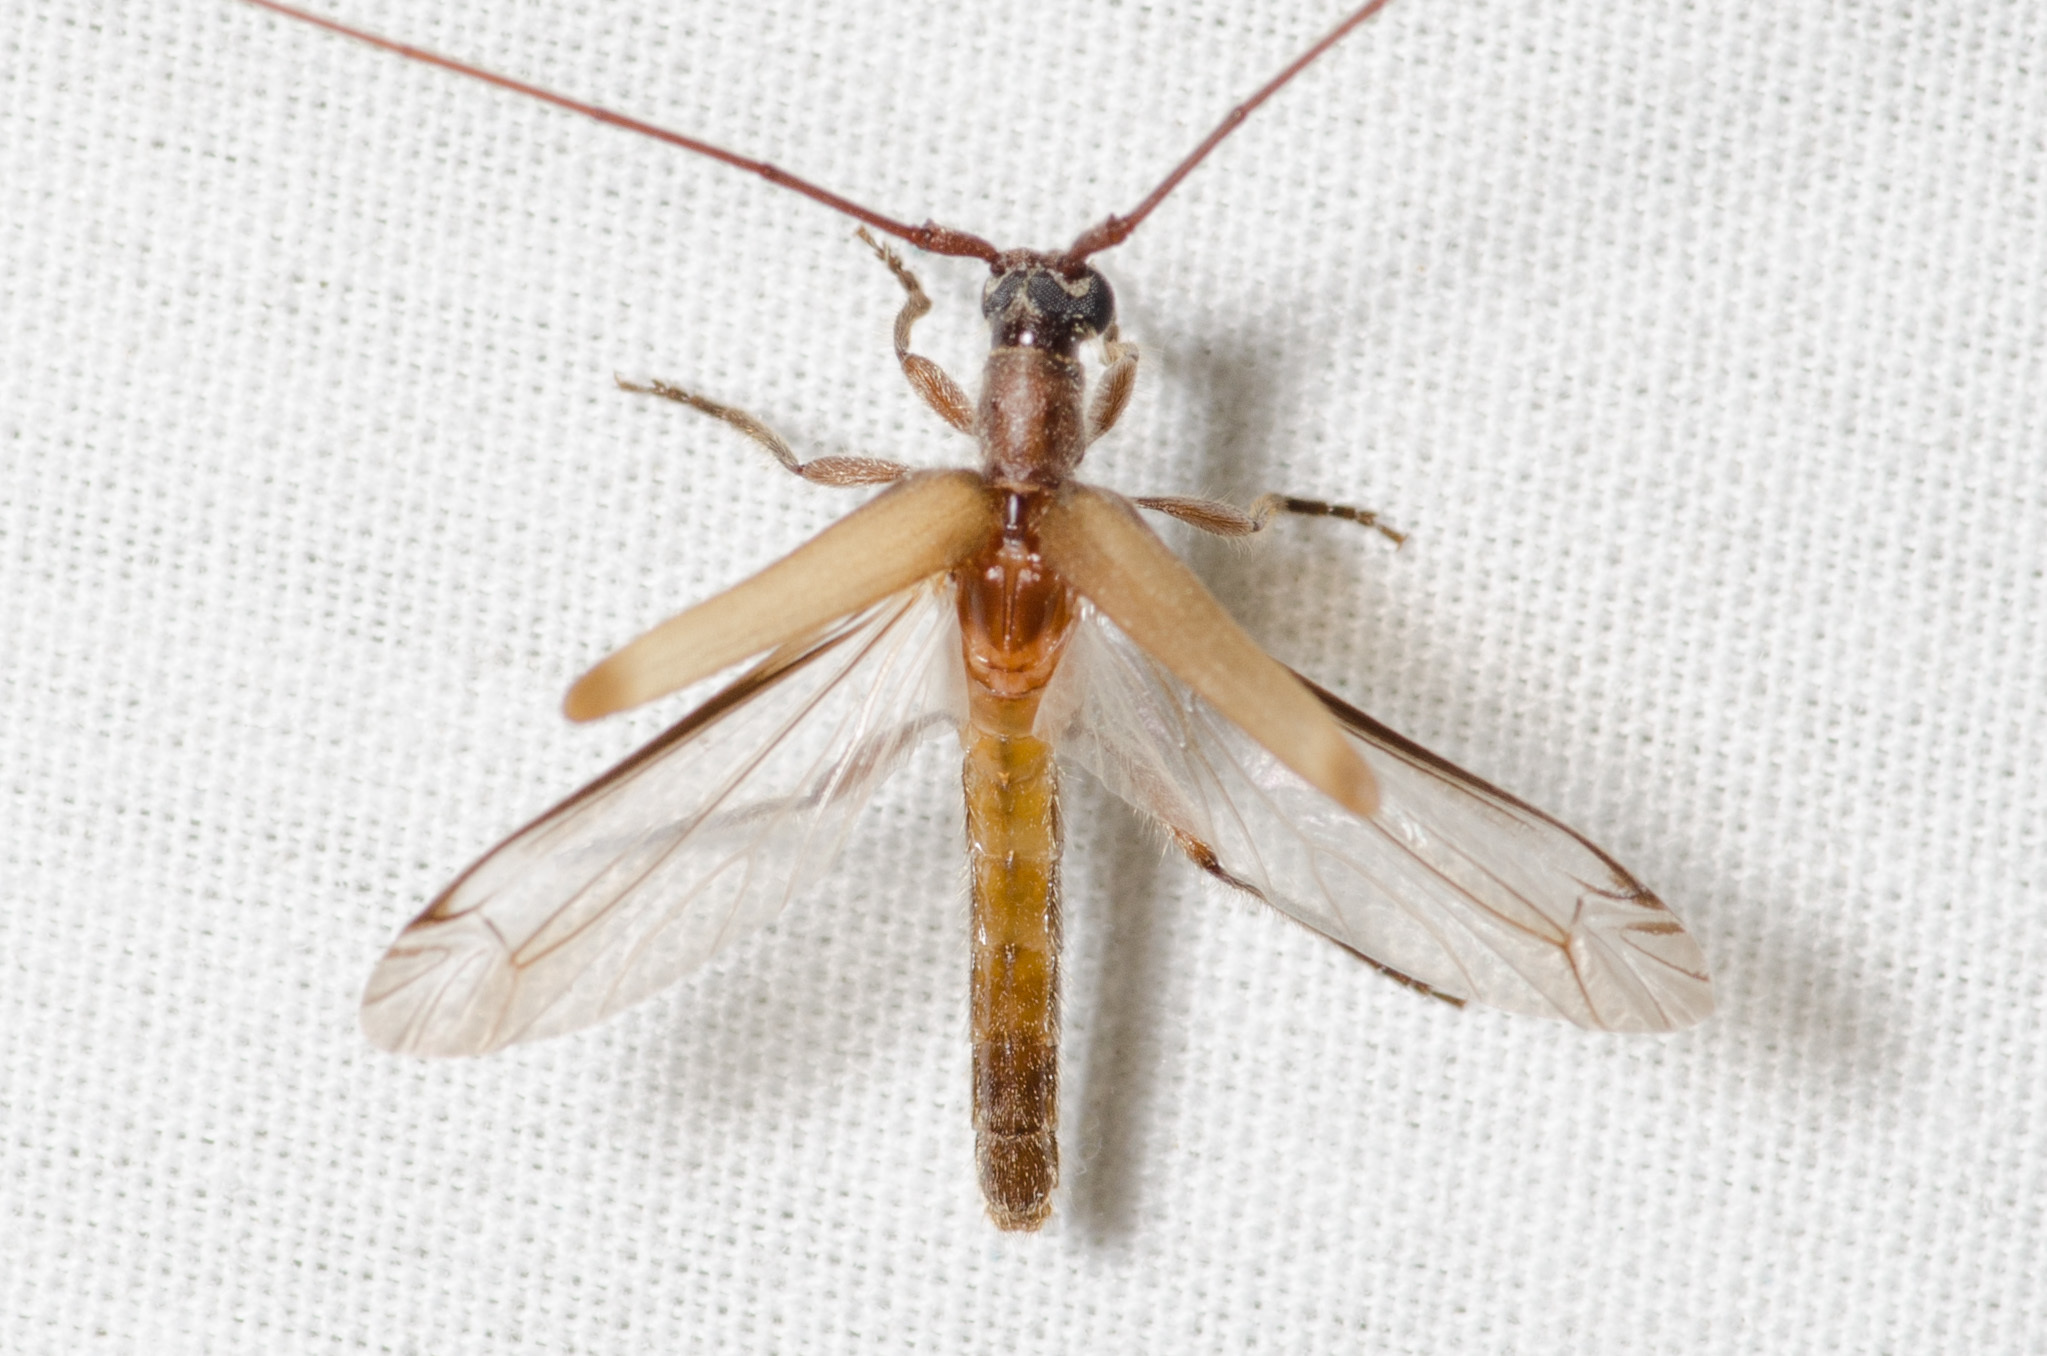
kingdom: Animalia
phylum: Arthropoda
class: Insecta
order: Coleoptera
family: Cerambycidae
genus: Styloxus
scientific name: Styloxus fulleri
